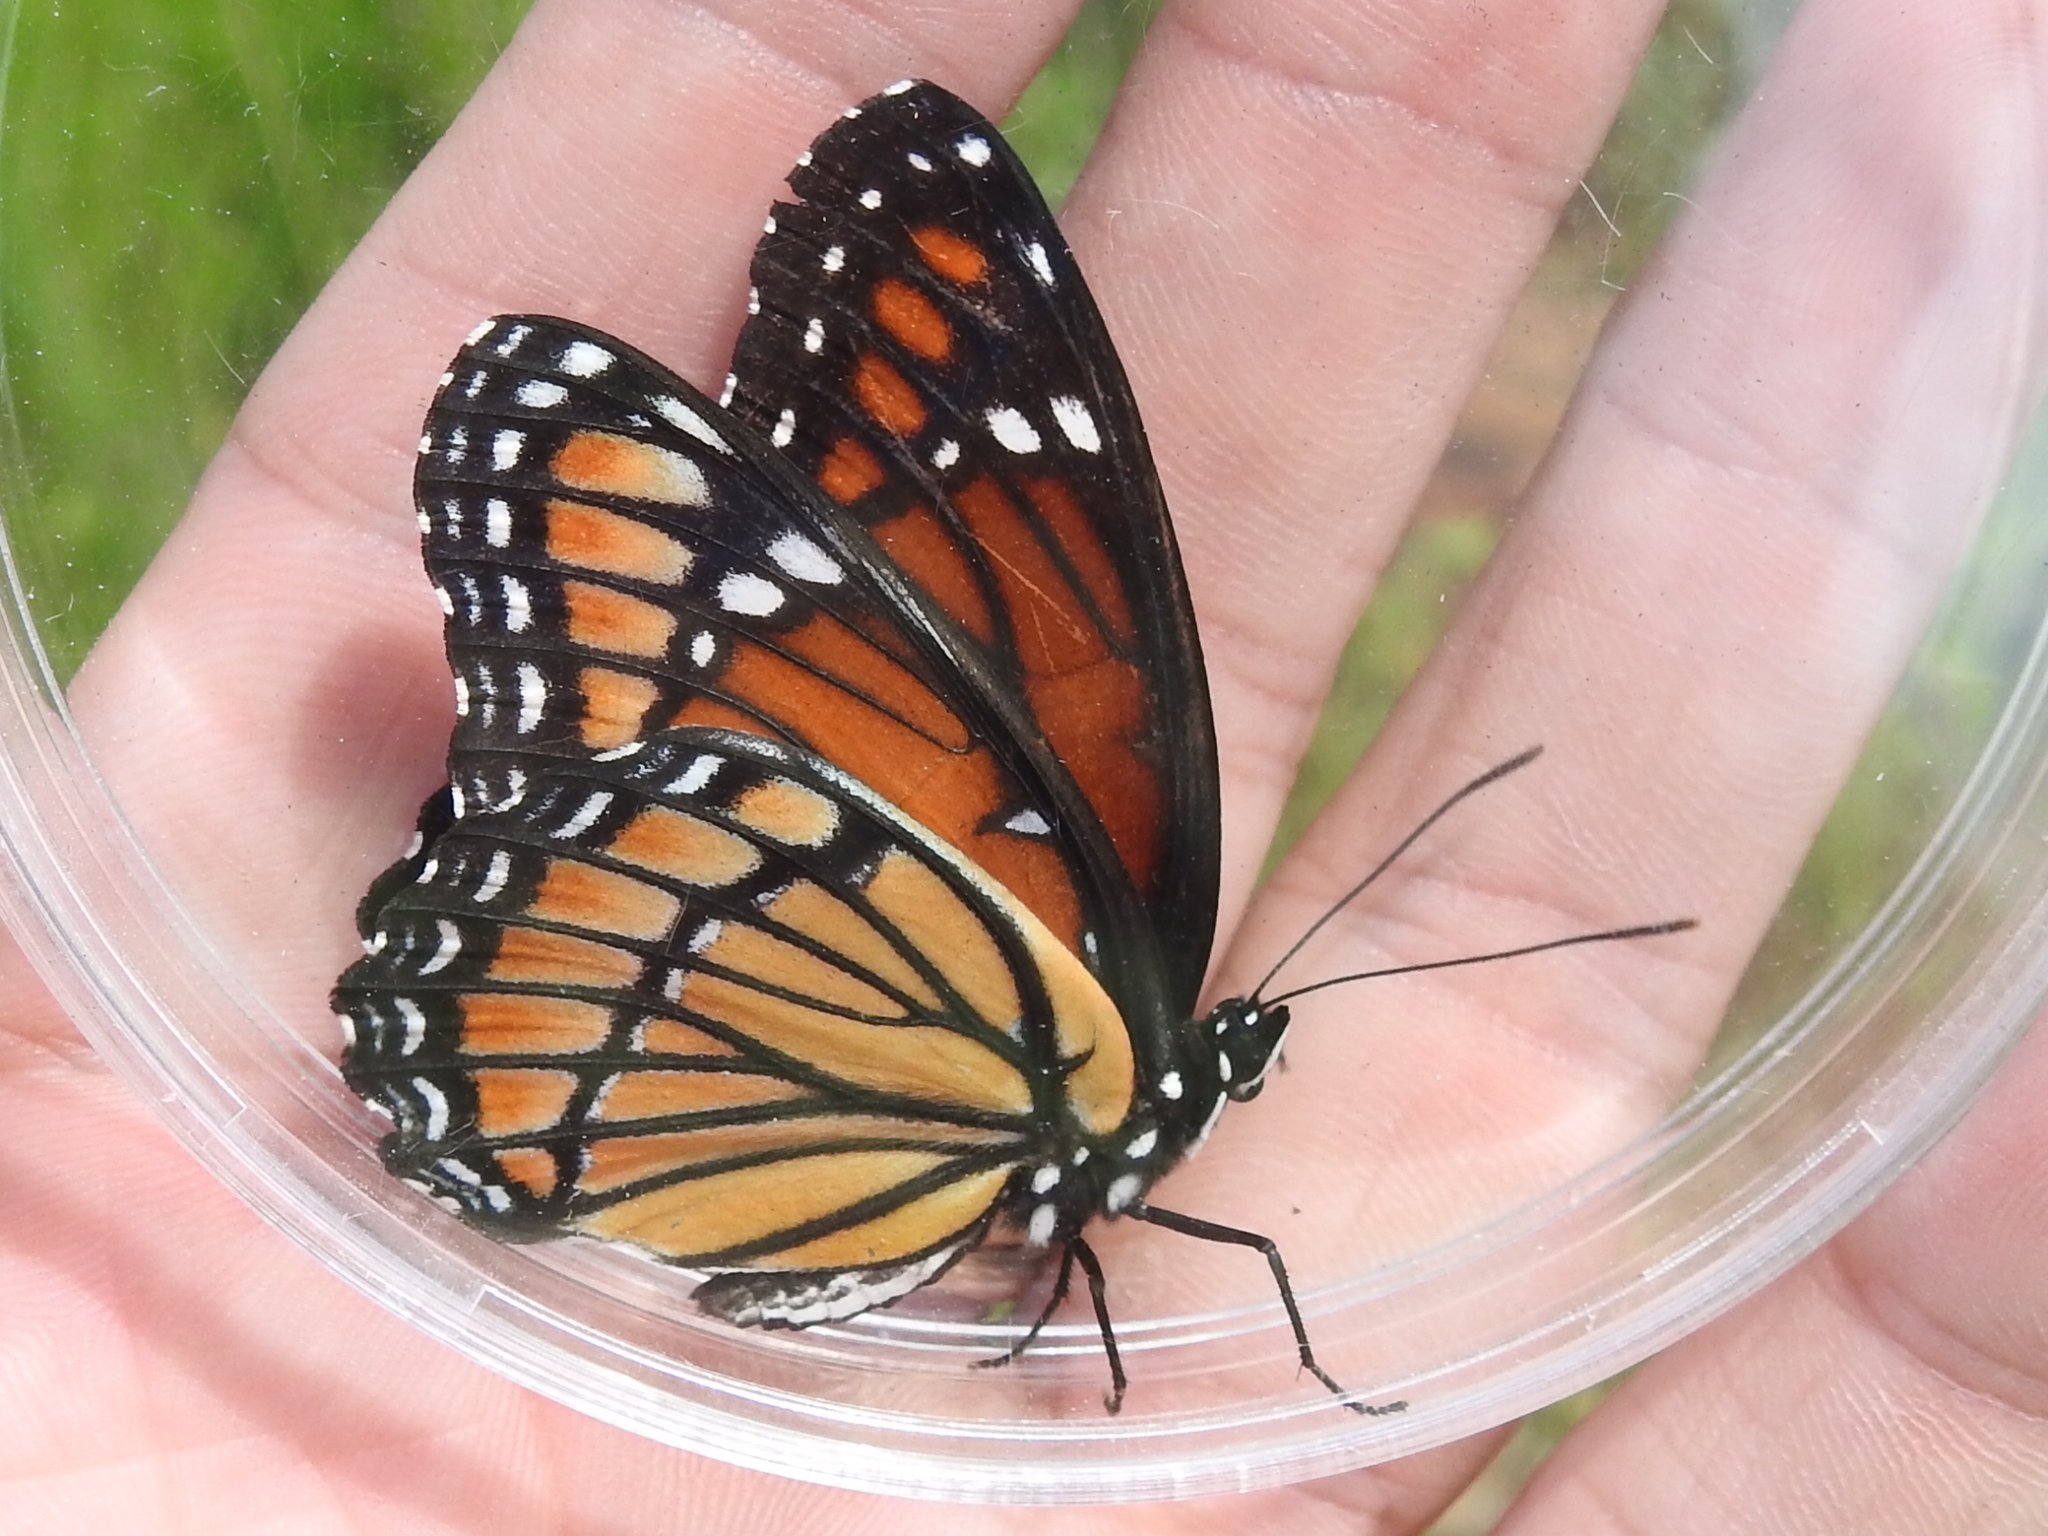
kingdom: Animalia
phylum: Arthropoda
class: Insecta
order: Lepidoptera
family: Nymphalidae
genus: Limenitis
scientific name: Limenitis archippus
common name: Viceroy
